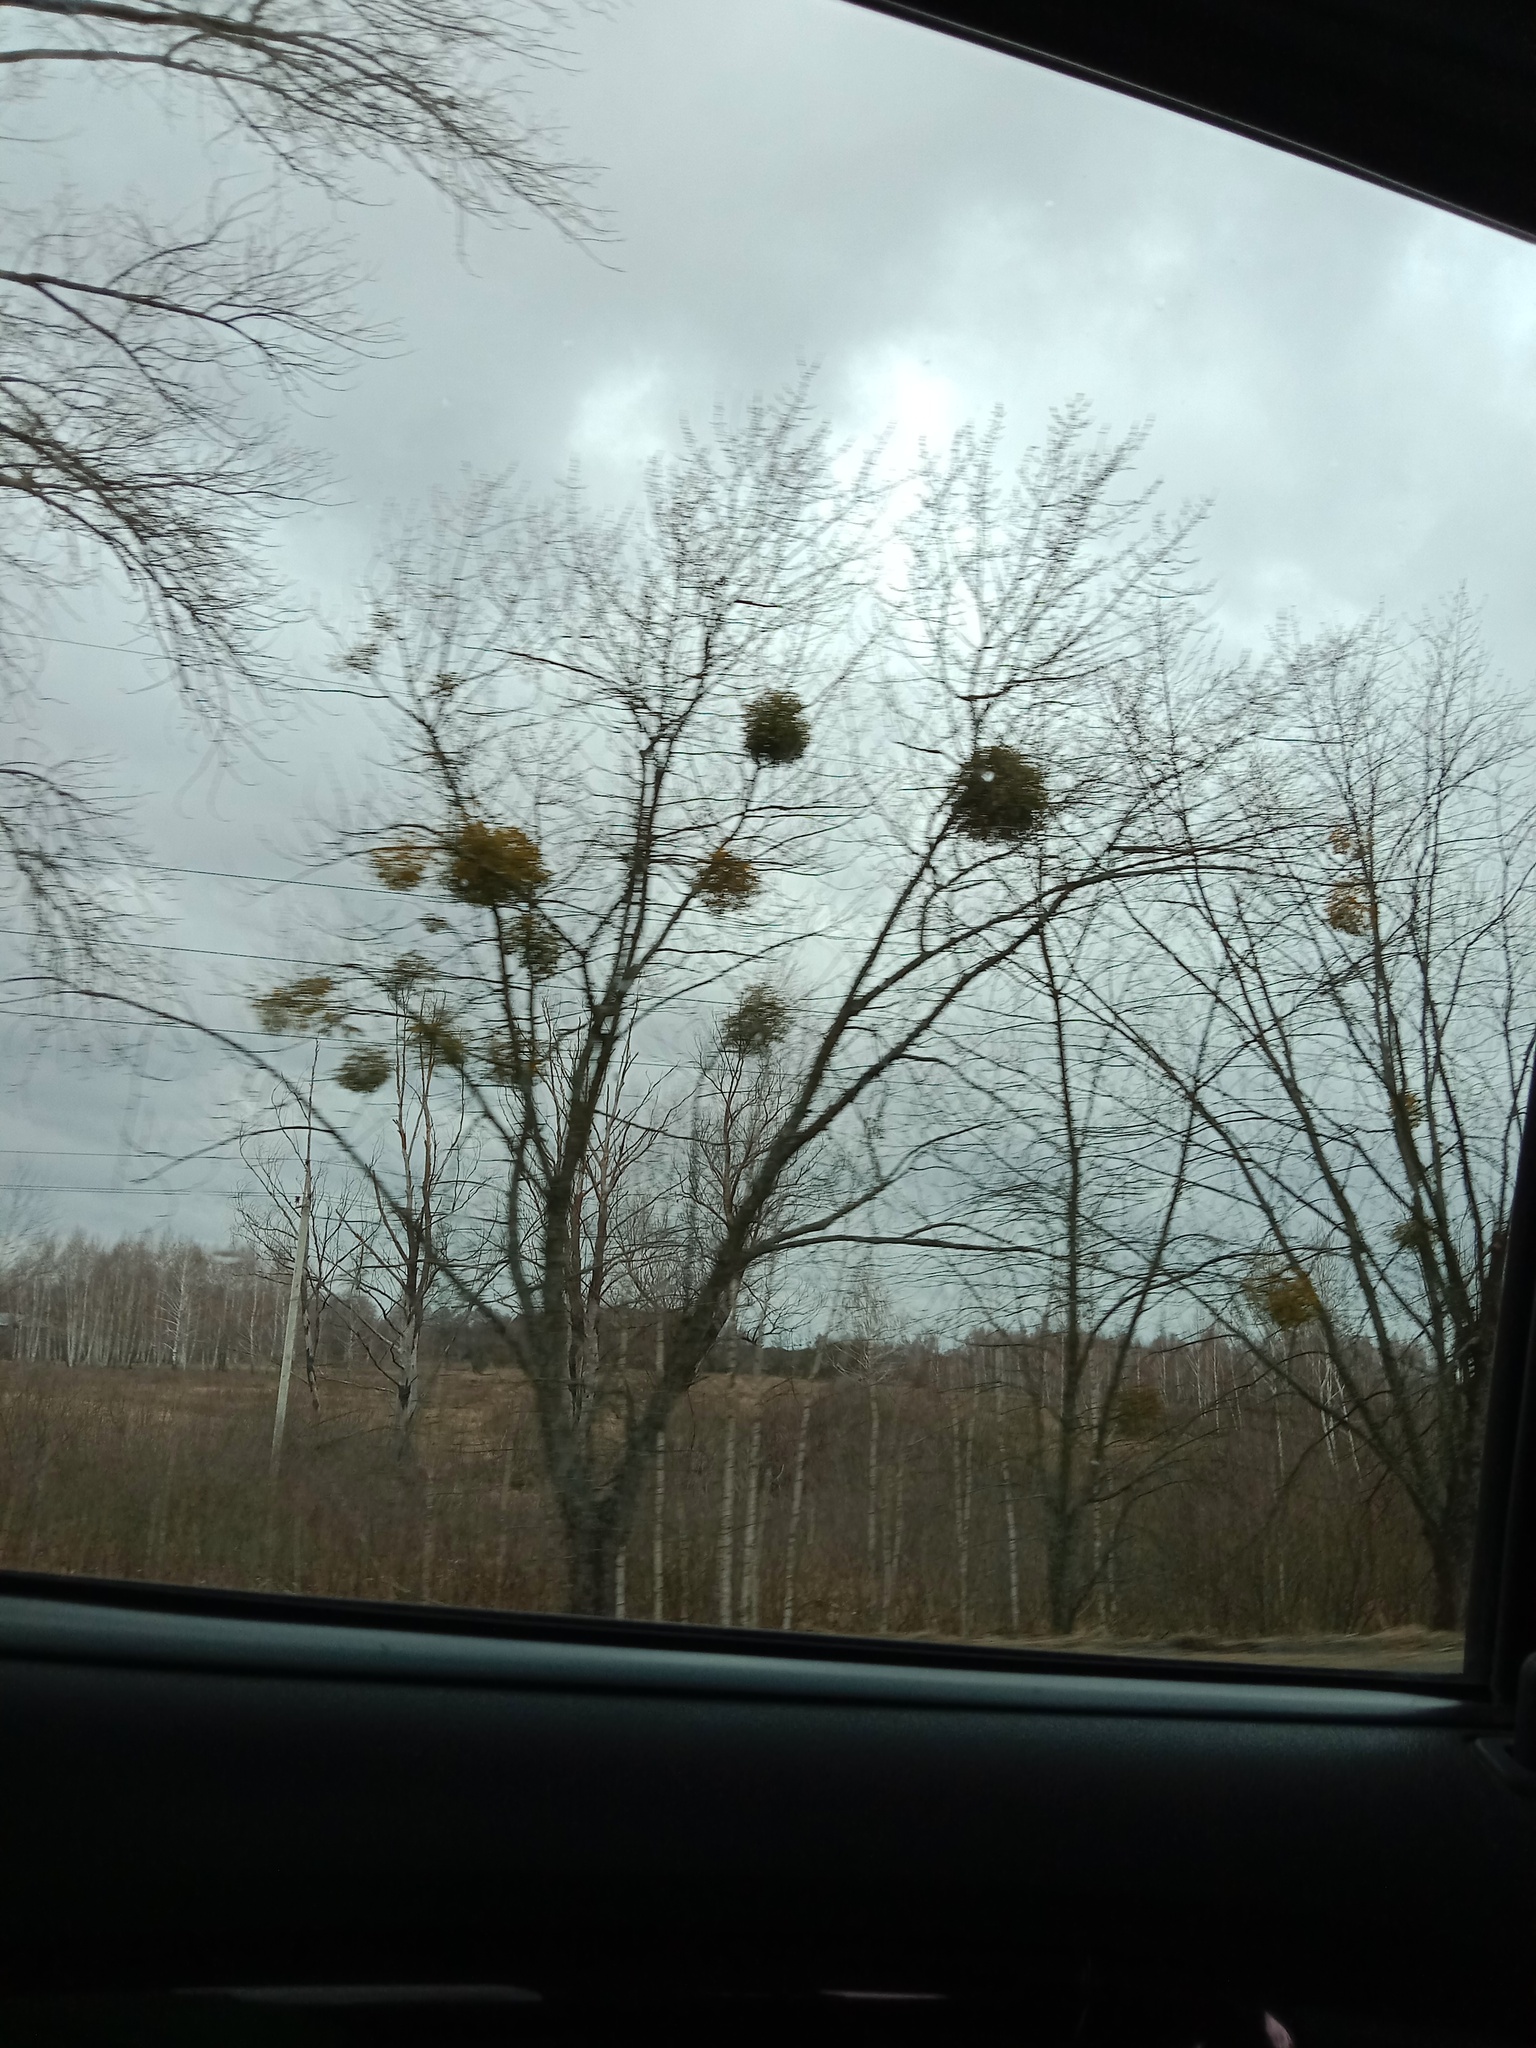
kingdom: Plantae
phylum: Tracheophyta
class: Magnoliopsida
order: Santalales
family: Viscaceae
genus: Viscum
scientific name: Viscum album
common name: Mistletoe
